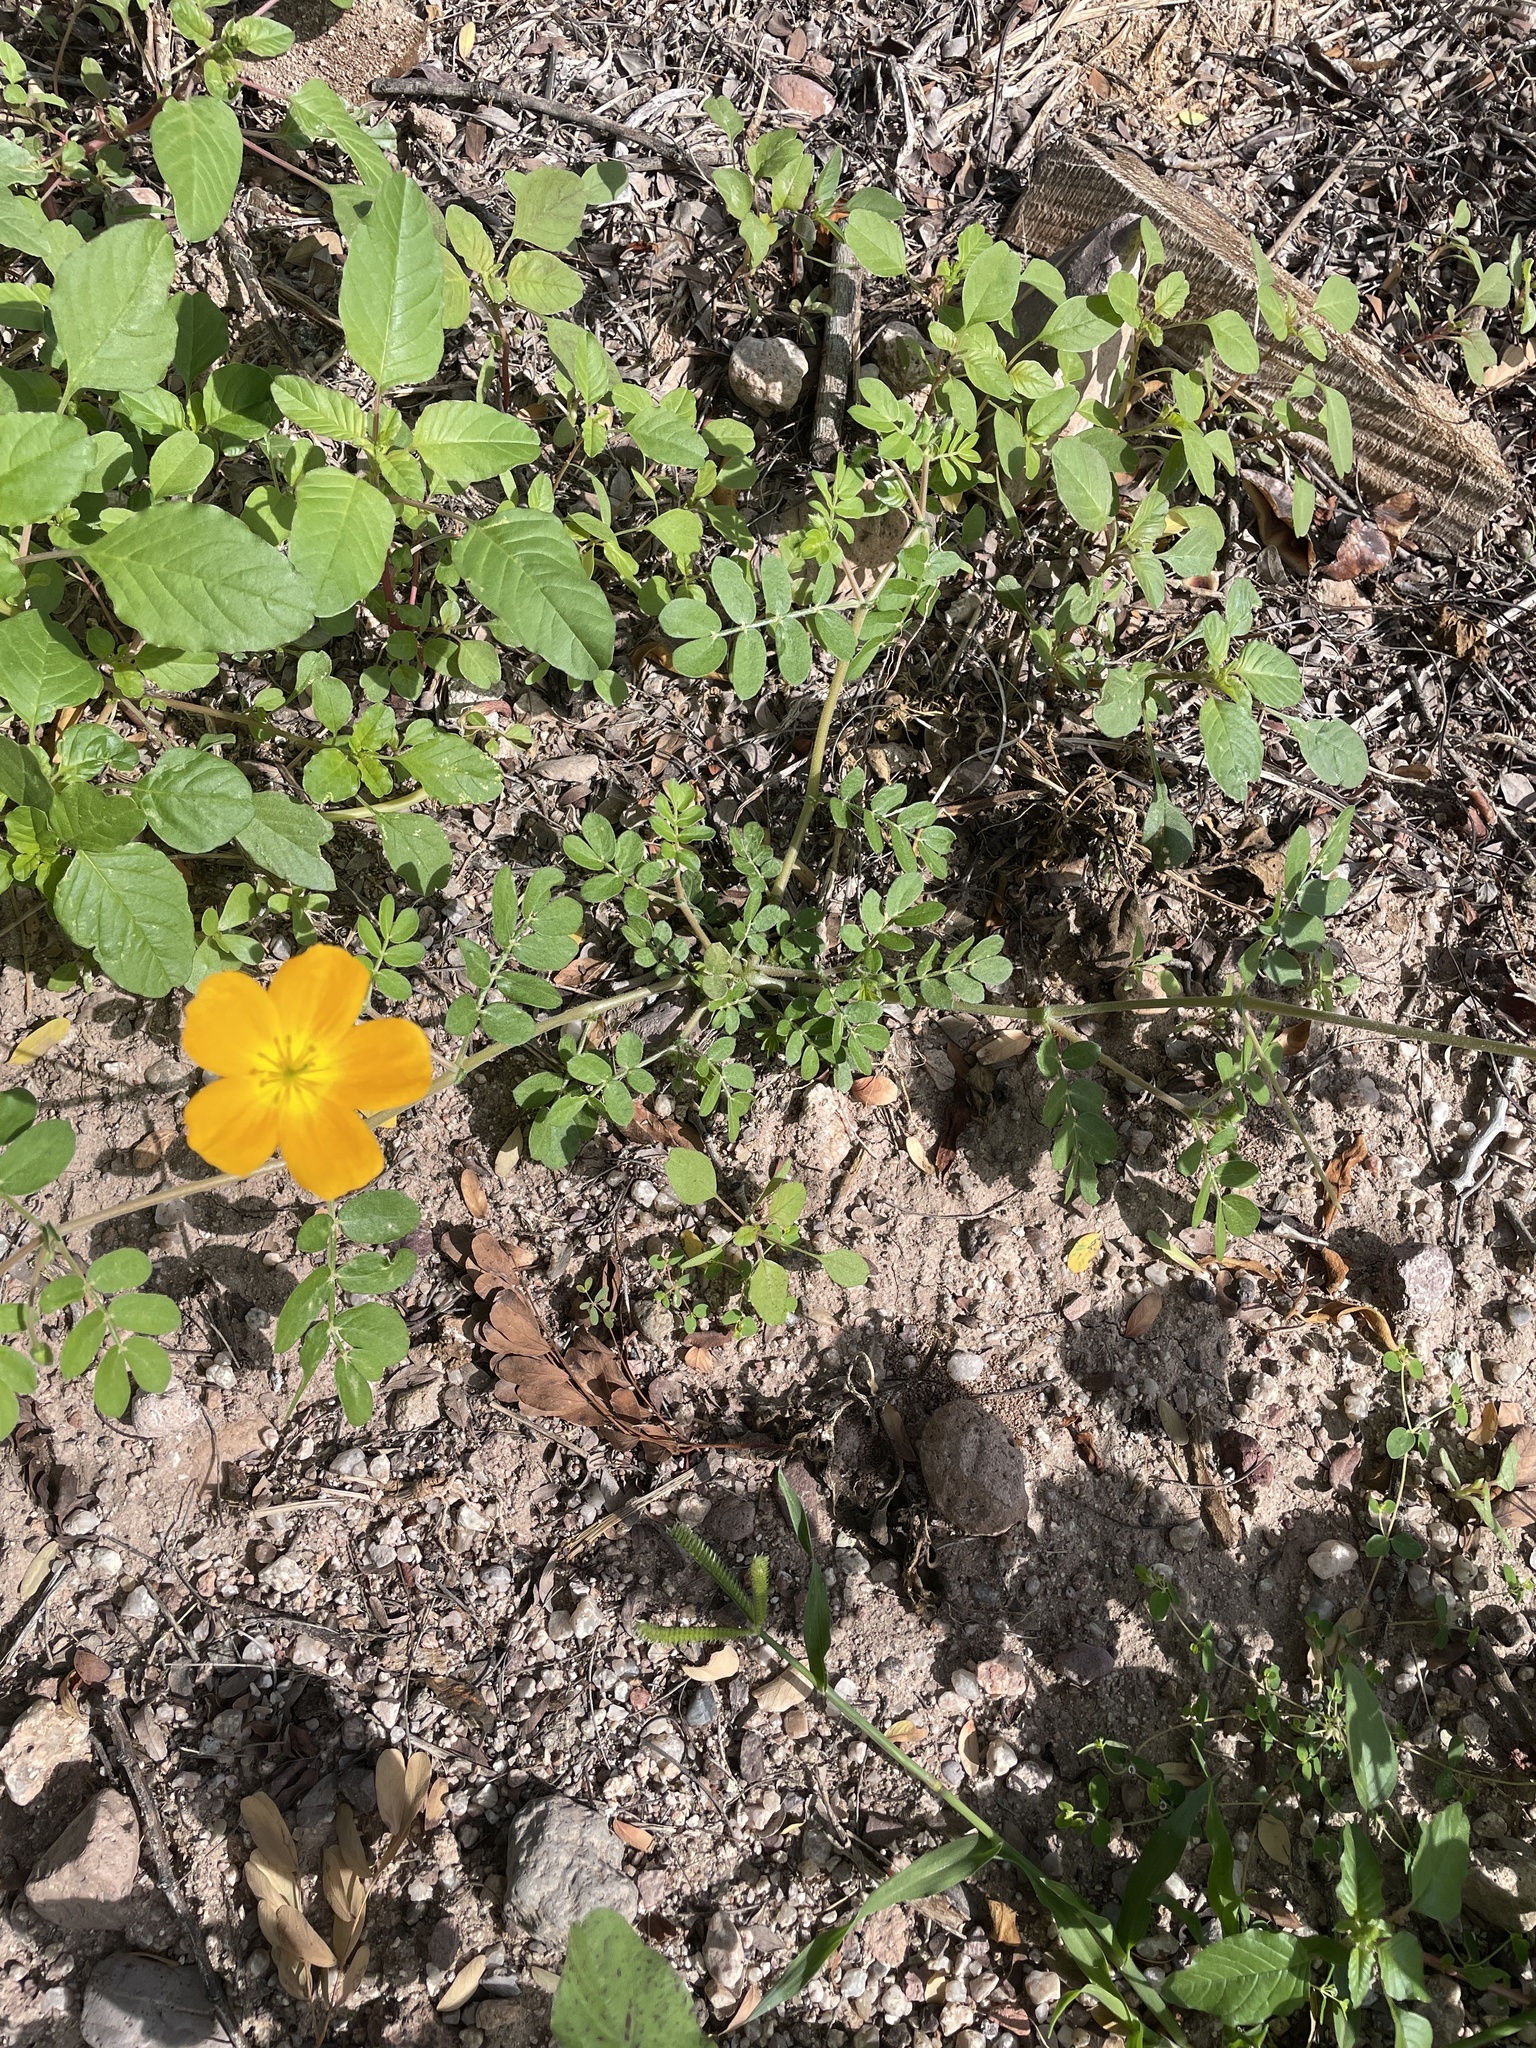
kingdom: Plantae
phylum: Tracheophyta
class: Magnoliopsida
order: Zygophyllales
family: Zygophyllaceae
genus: Kallstroemia
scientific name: Kallstroemia peninsularis
